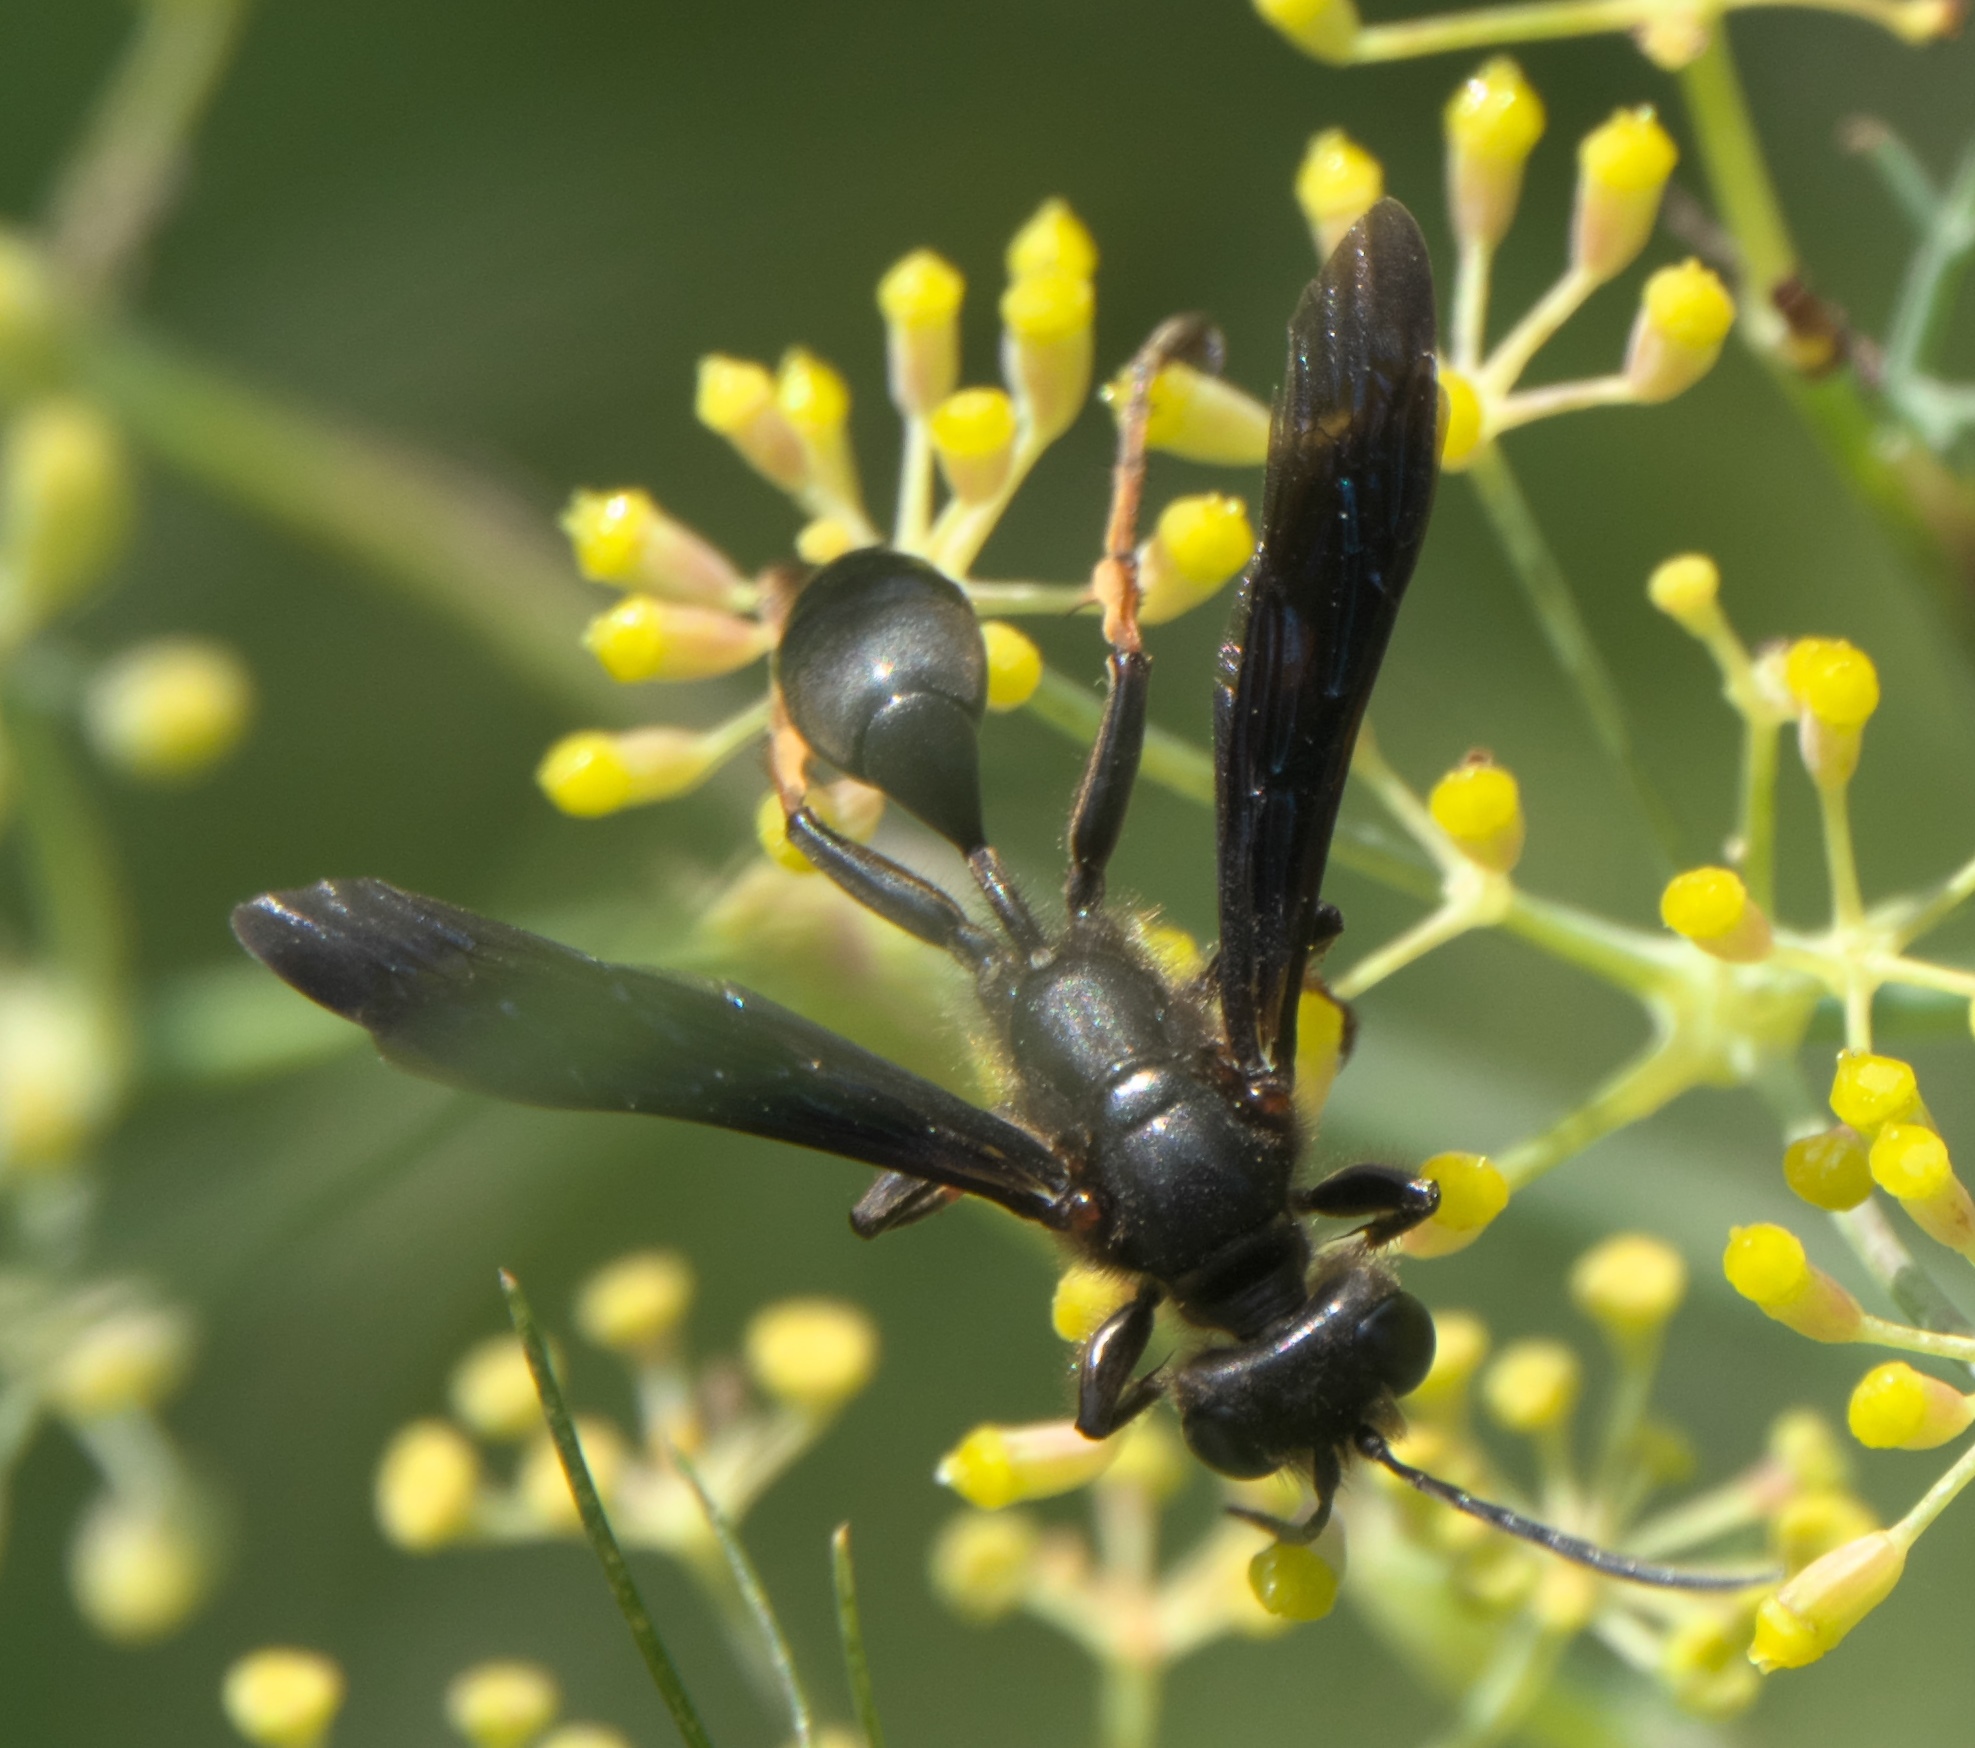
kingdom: Animalia
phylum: Arthropoda
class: Insecta
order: Hymenoptera
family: Sphecidae
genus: Isodontia
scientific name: Isodontia auripes
